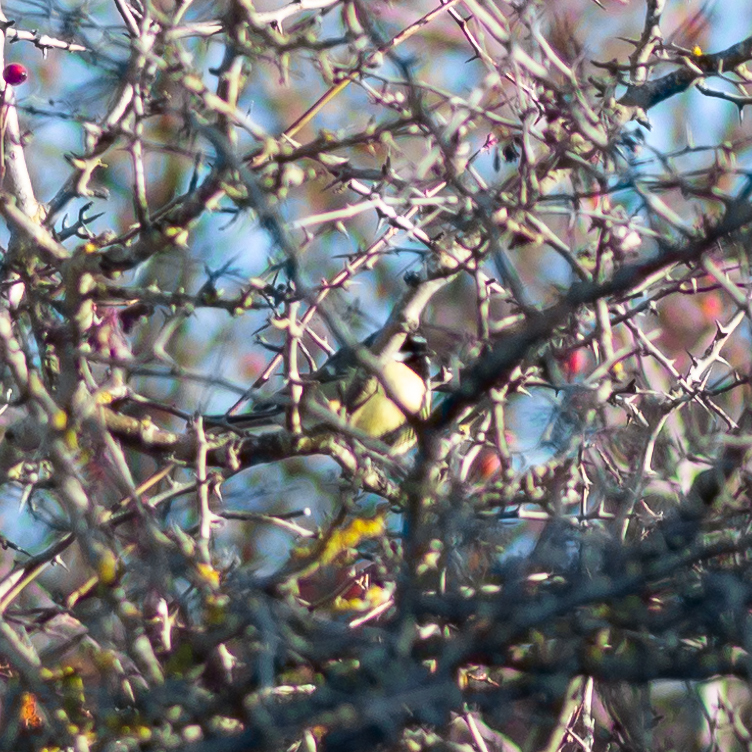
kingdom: Animalia
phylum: Chordata
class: Aves
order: Passeriformes
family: Paridae
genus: Parus
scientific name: Parus major
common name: Great tit
